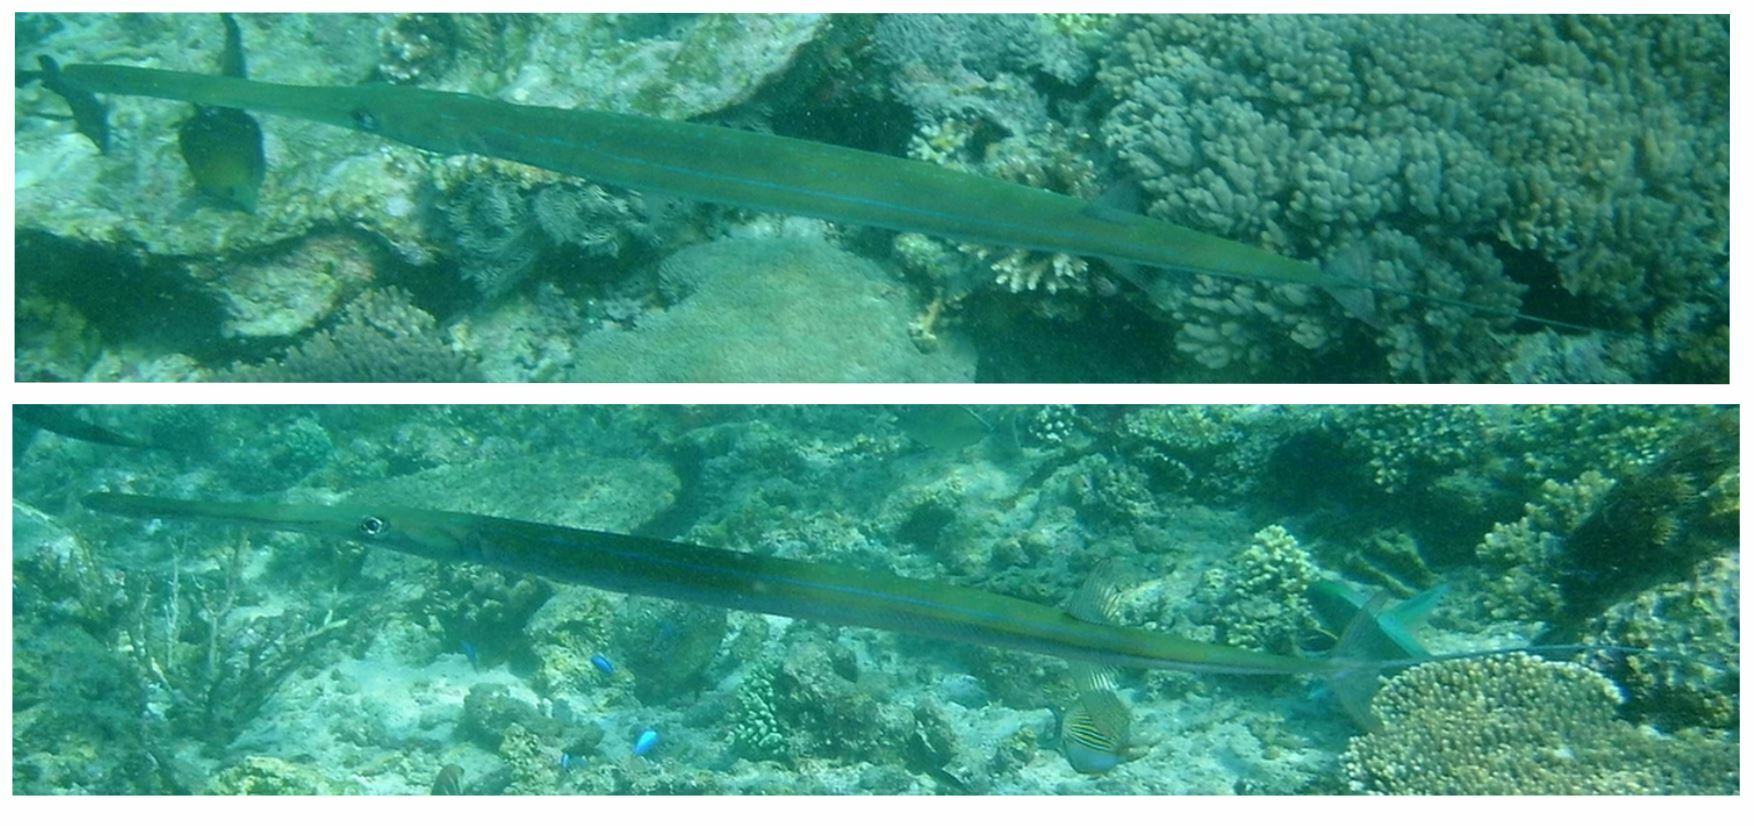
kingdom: Animalia
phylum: Chordata
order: Syngnathiformes
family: Fistulariidae
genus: Fistularia
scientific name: Fistularia commersonii
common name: Bluespotted cornetfish
